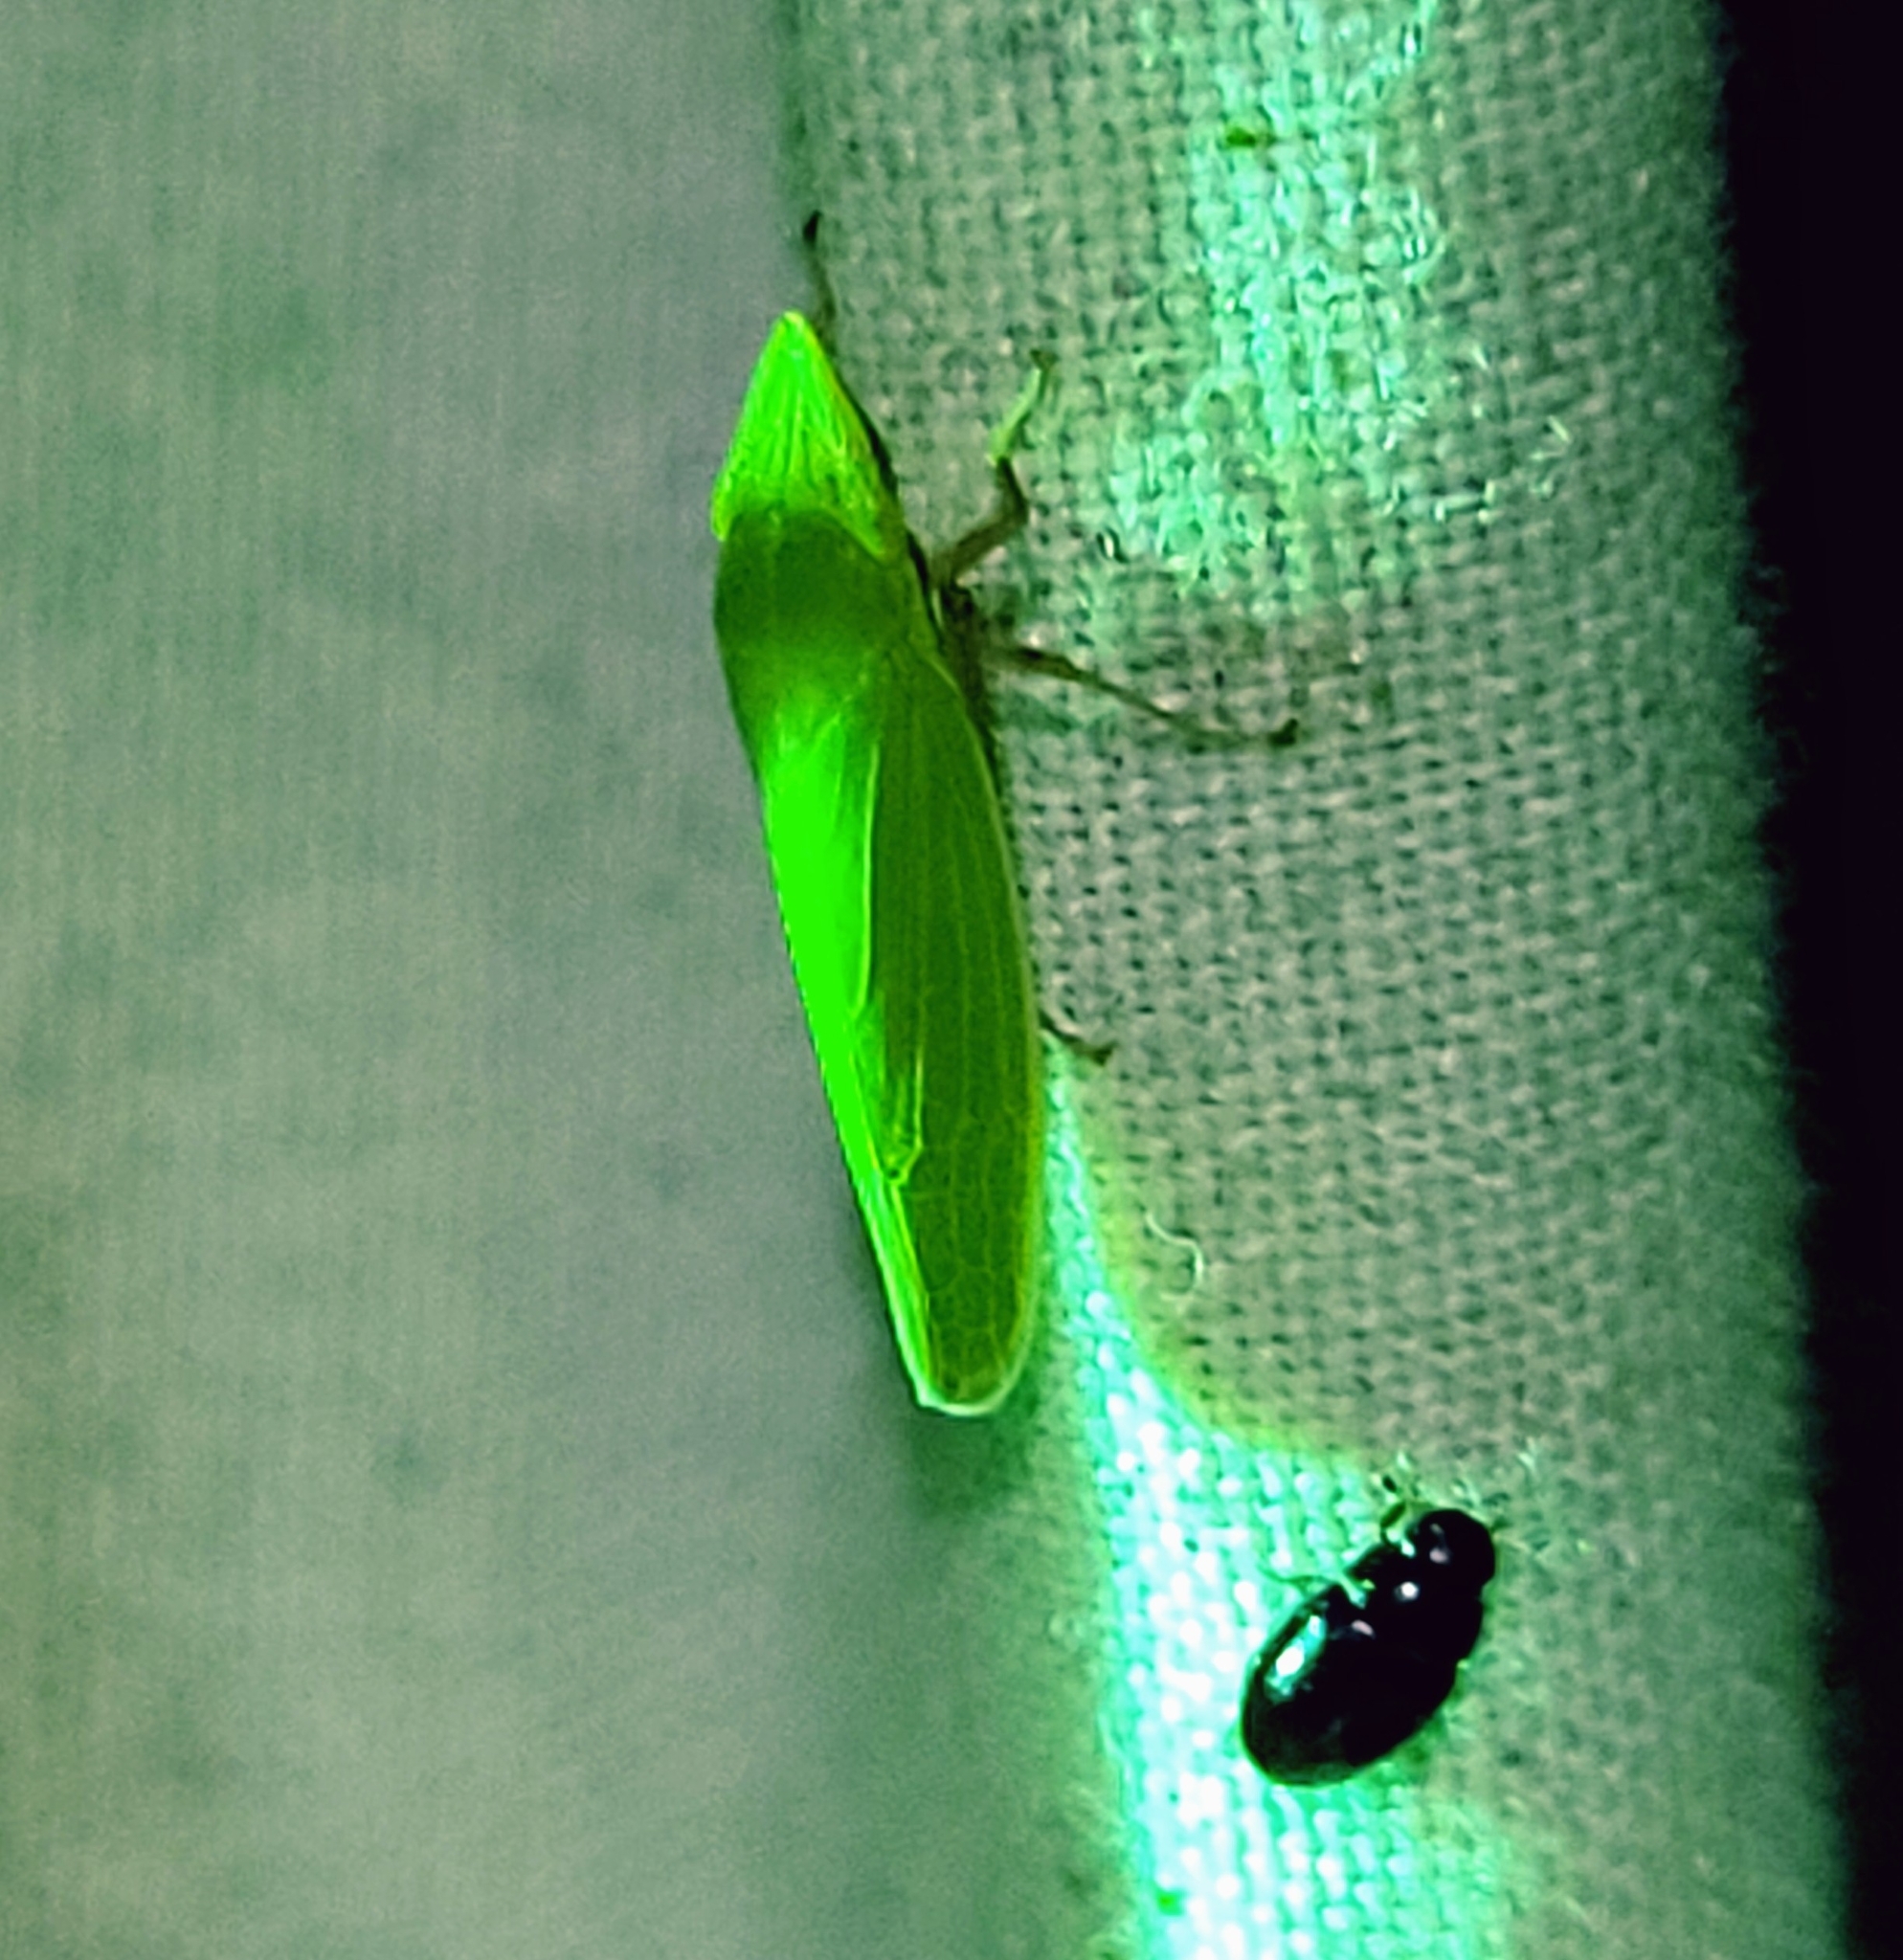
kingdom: Animalia
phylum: Arthropoda
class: Insecta
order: Hemiptera
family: Cicadellidae
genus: Draeculacephala
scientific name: Draeculacephala robinsoni
